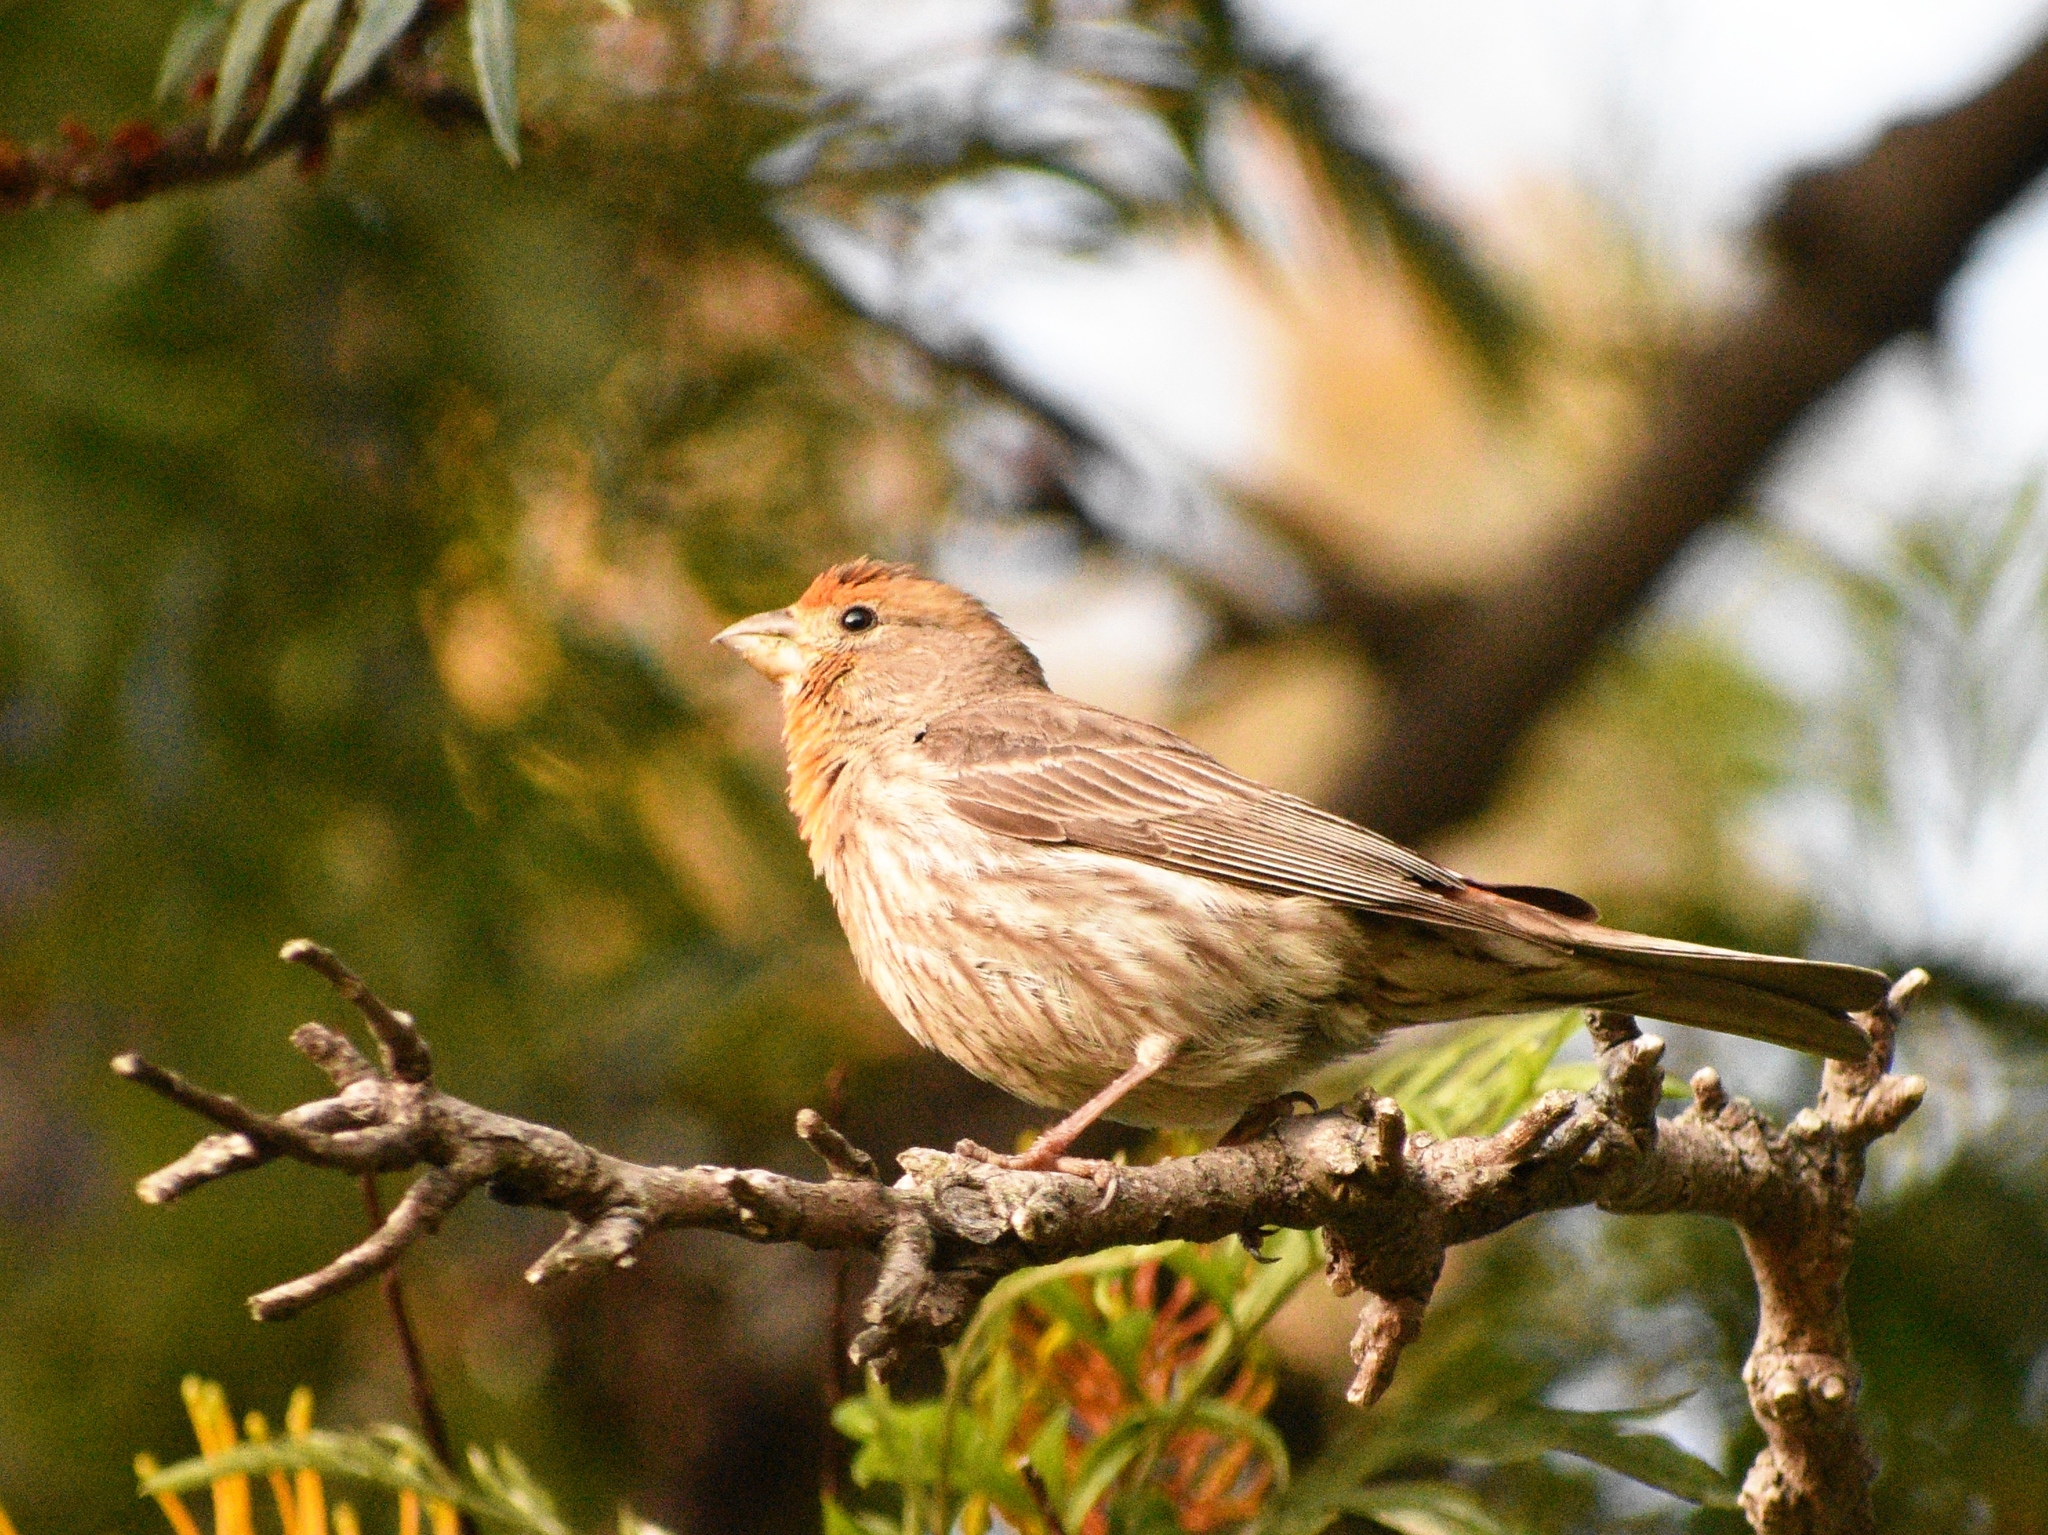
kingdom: Animalia
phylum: Chordata
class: Aves
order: Passeriformes
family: Fringillidae
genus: Haemorhous
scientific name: Haemorhous mexicanus
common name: House finch
